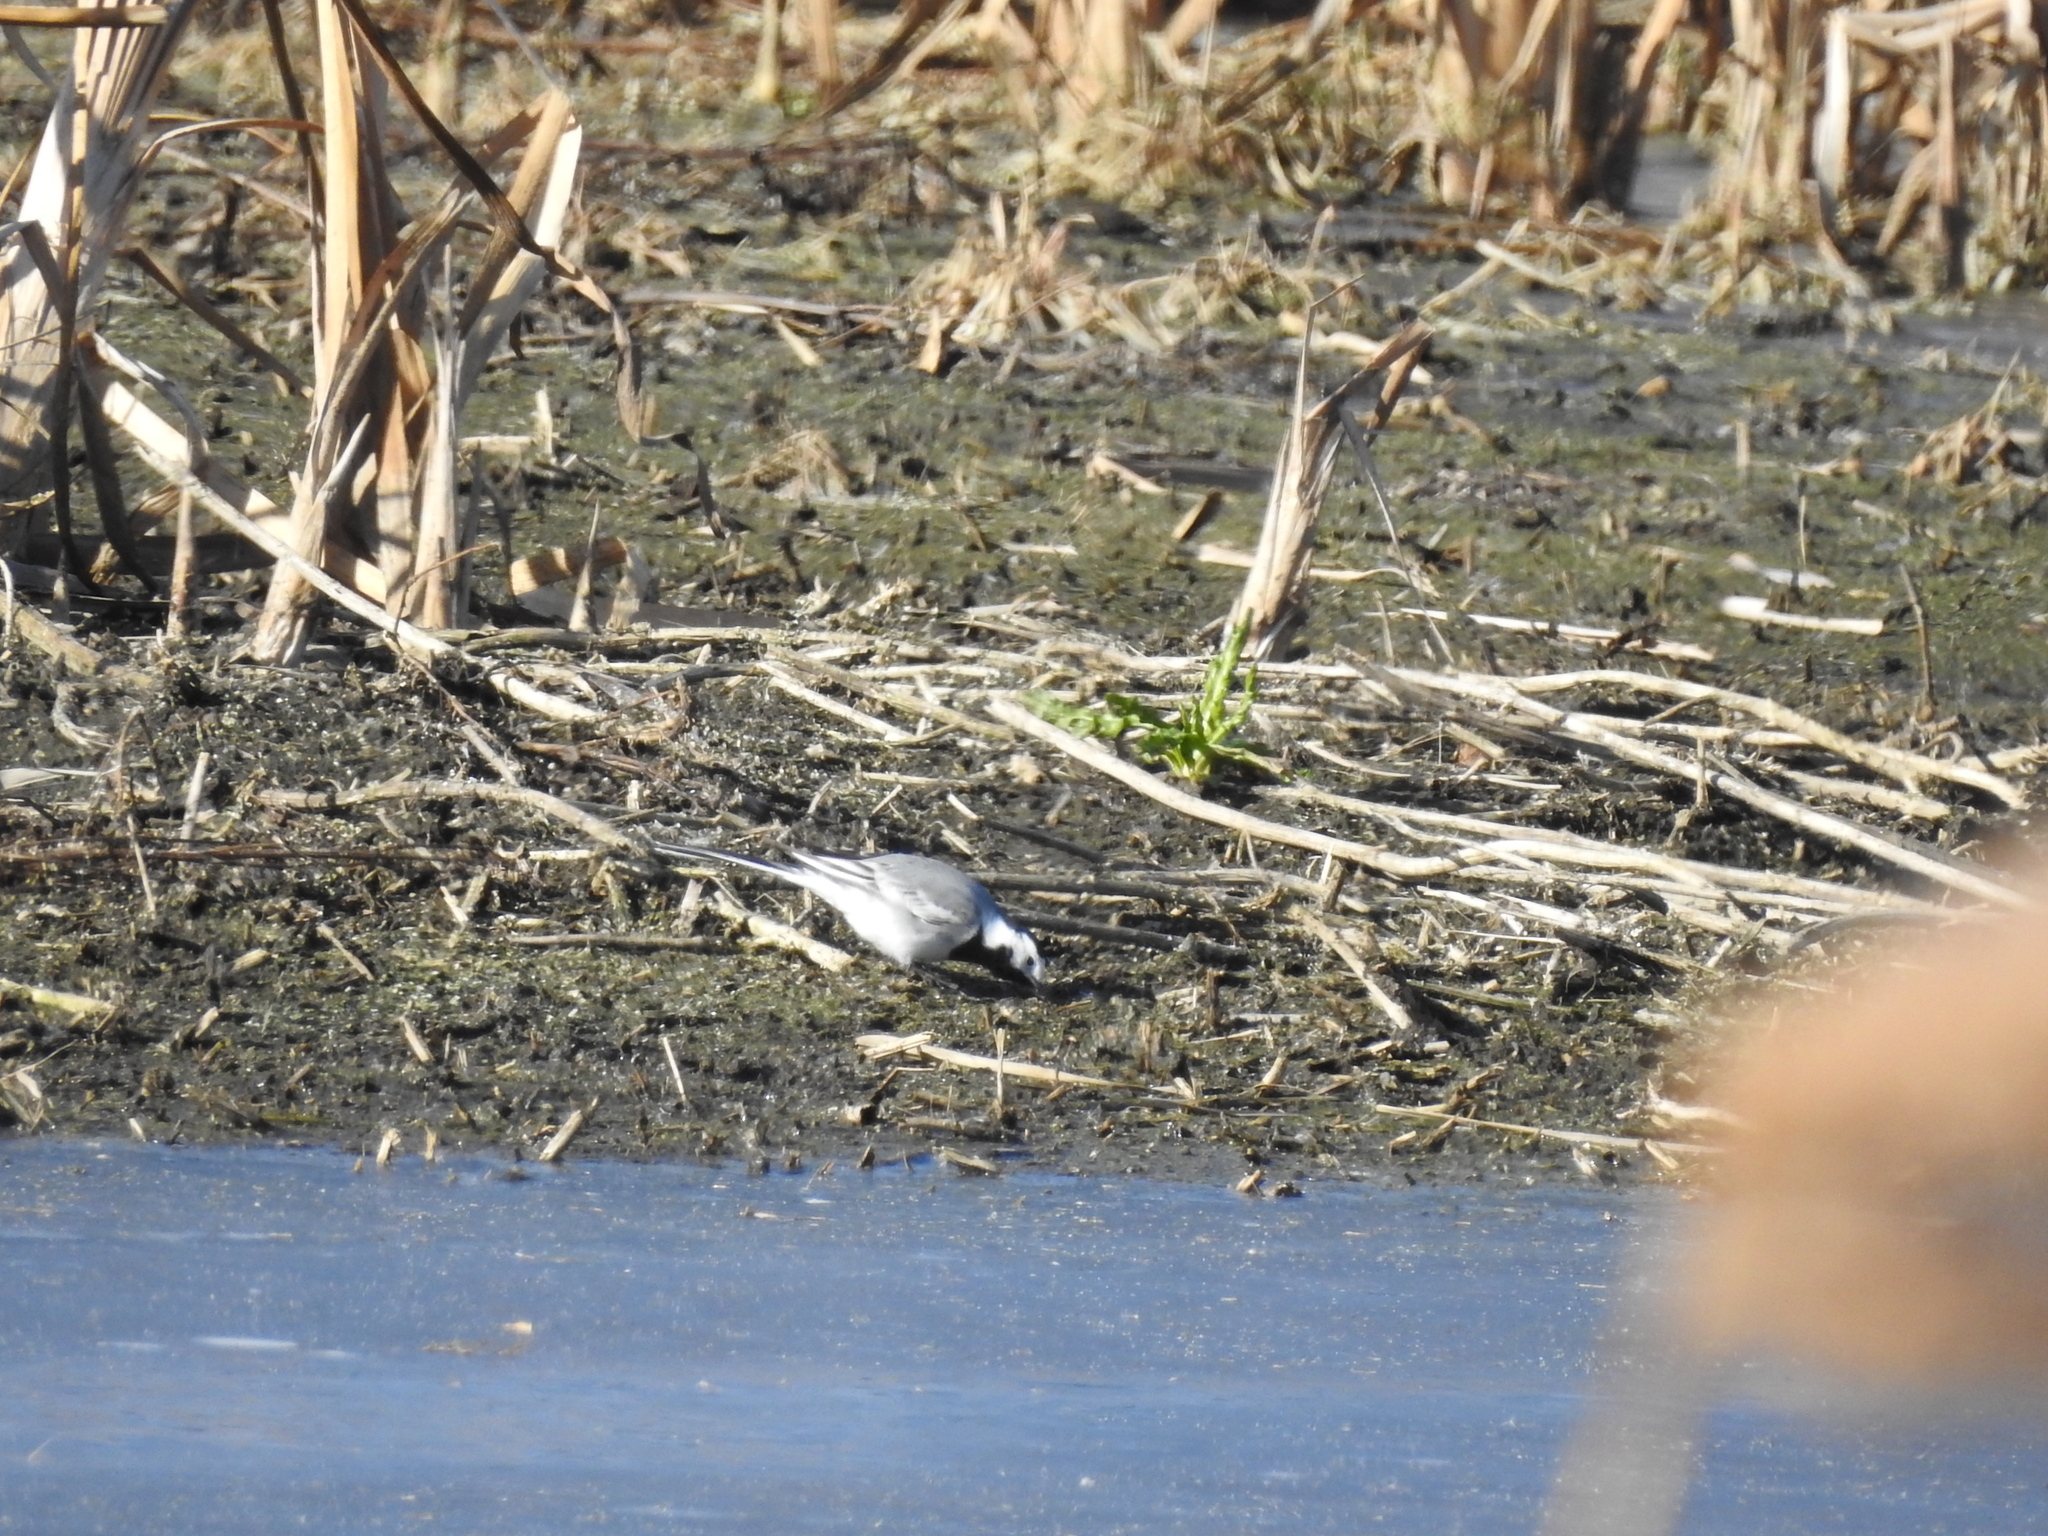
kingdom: Animalia
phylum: Chordata
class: Aves
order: Passeriformes
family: Motacillidae
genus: Motacilla
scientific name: Motacilla alba
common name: White wagtail
